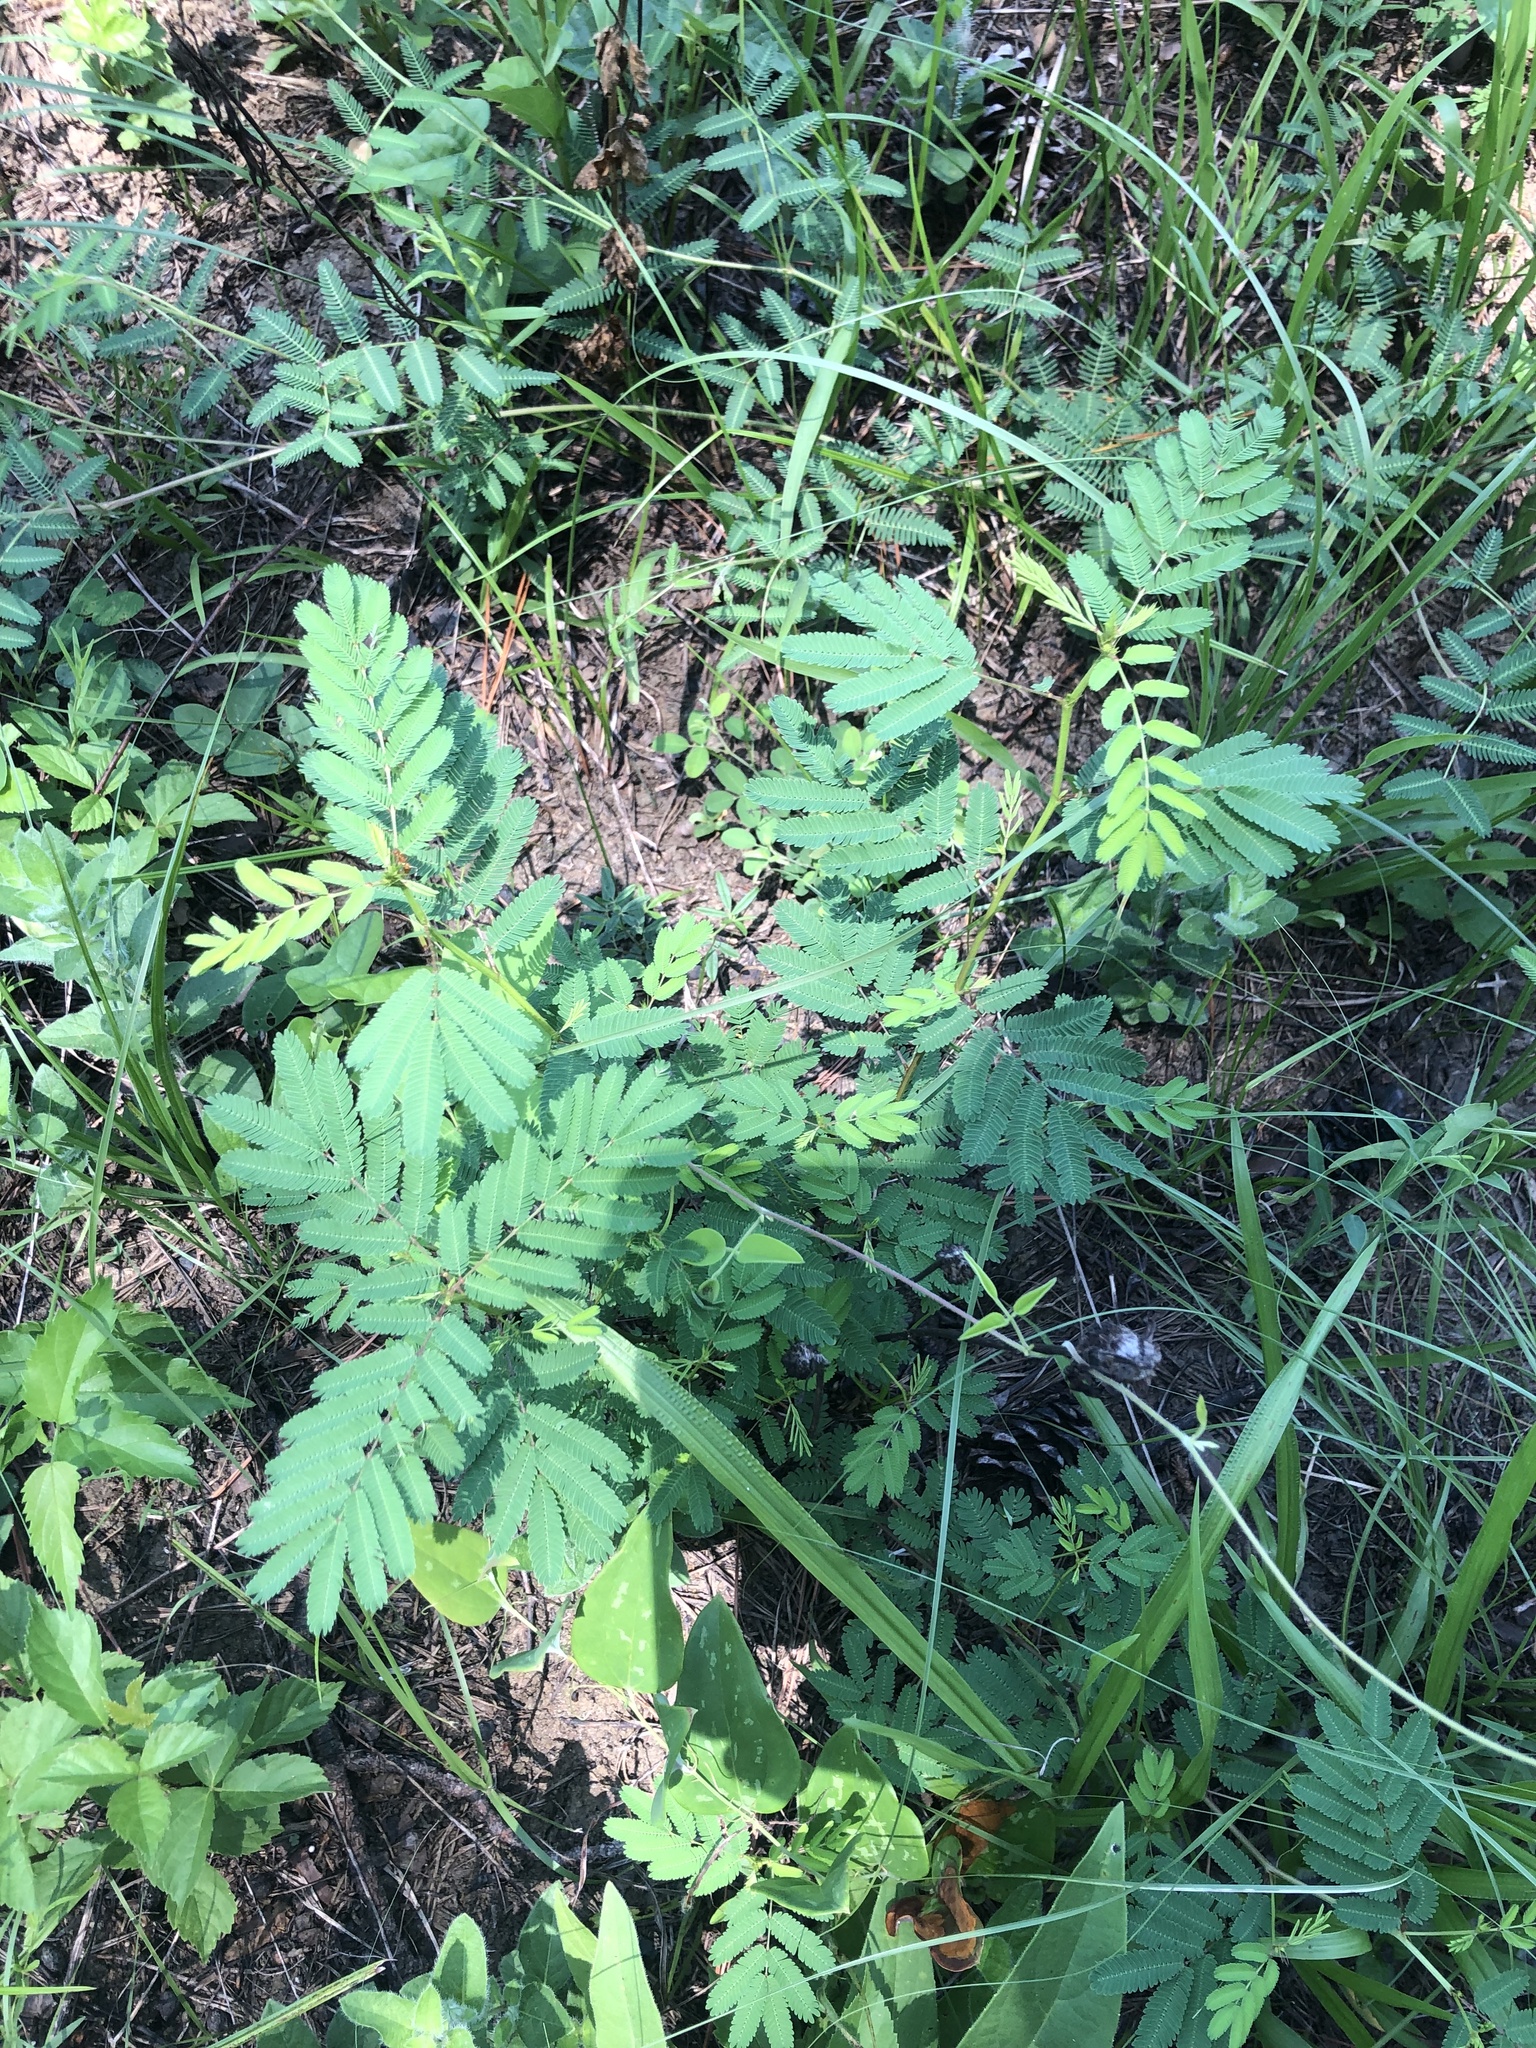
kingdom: Plantae
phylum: Tracheophyta
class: Magnoliopsida
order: Fabales
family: Fabaceae
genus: Desmanthus
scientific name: Desmanthus illinoensis
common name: Illinois bundle-flower
